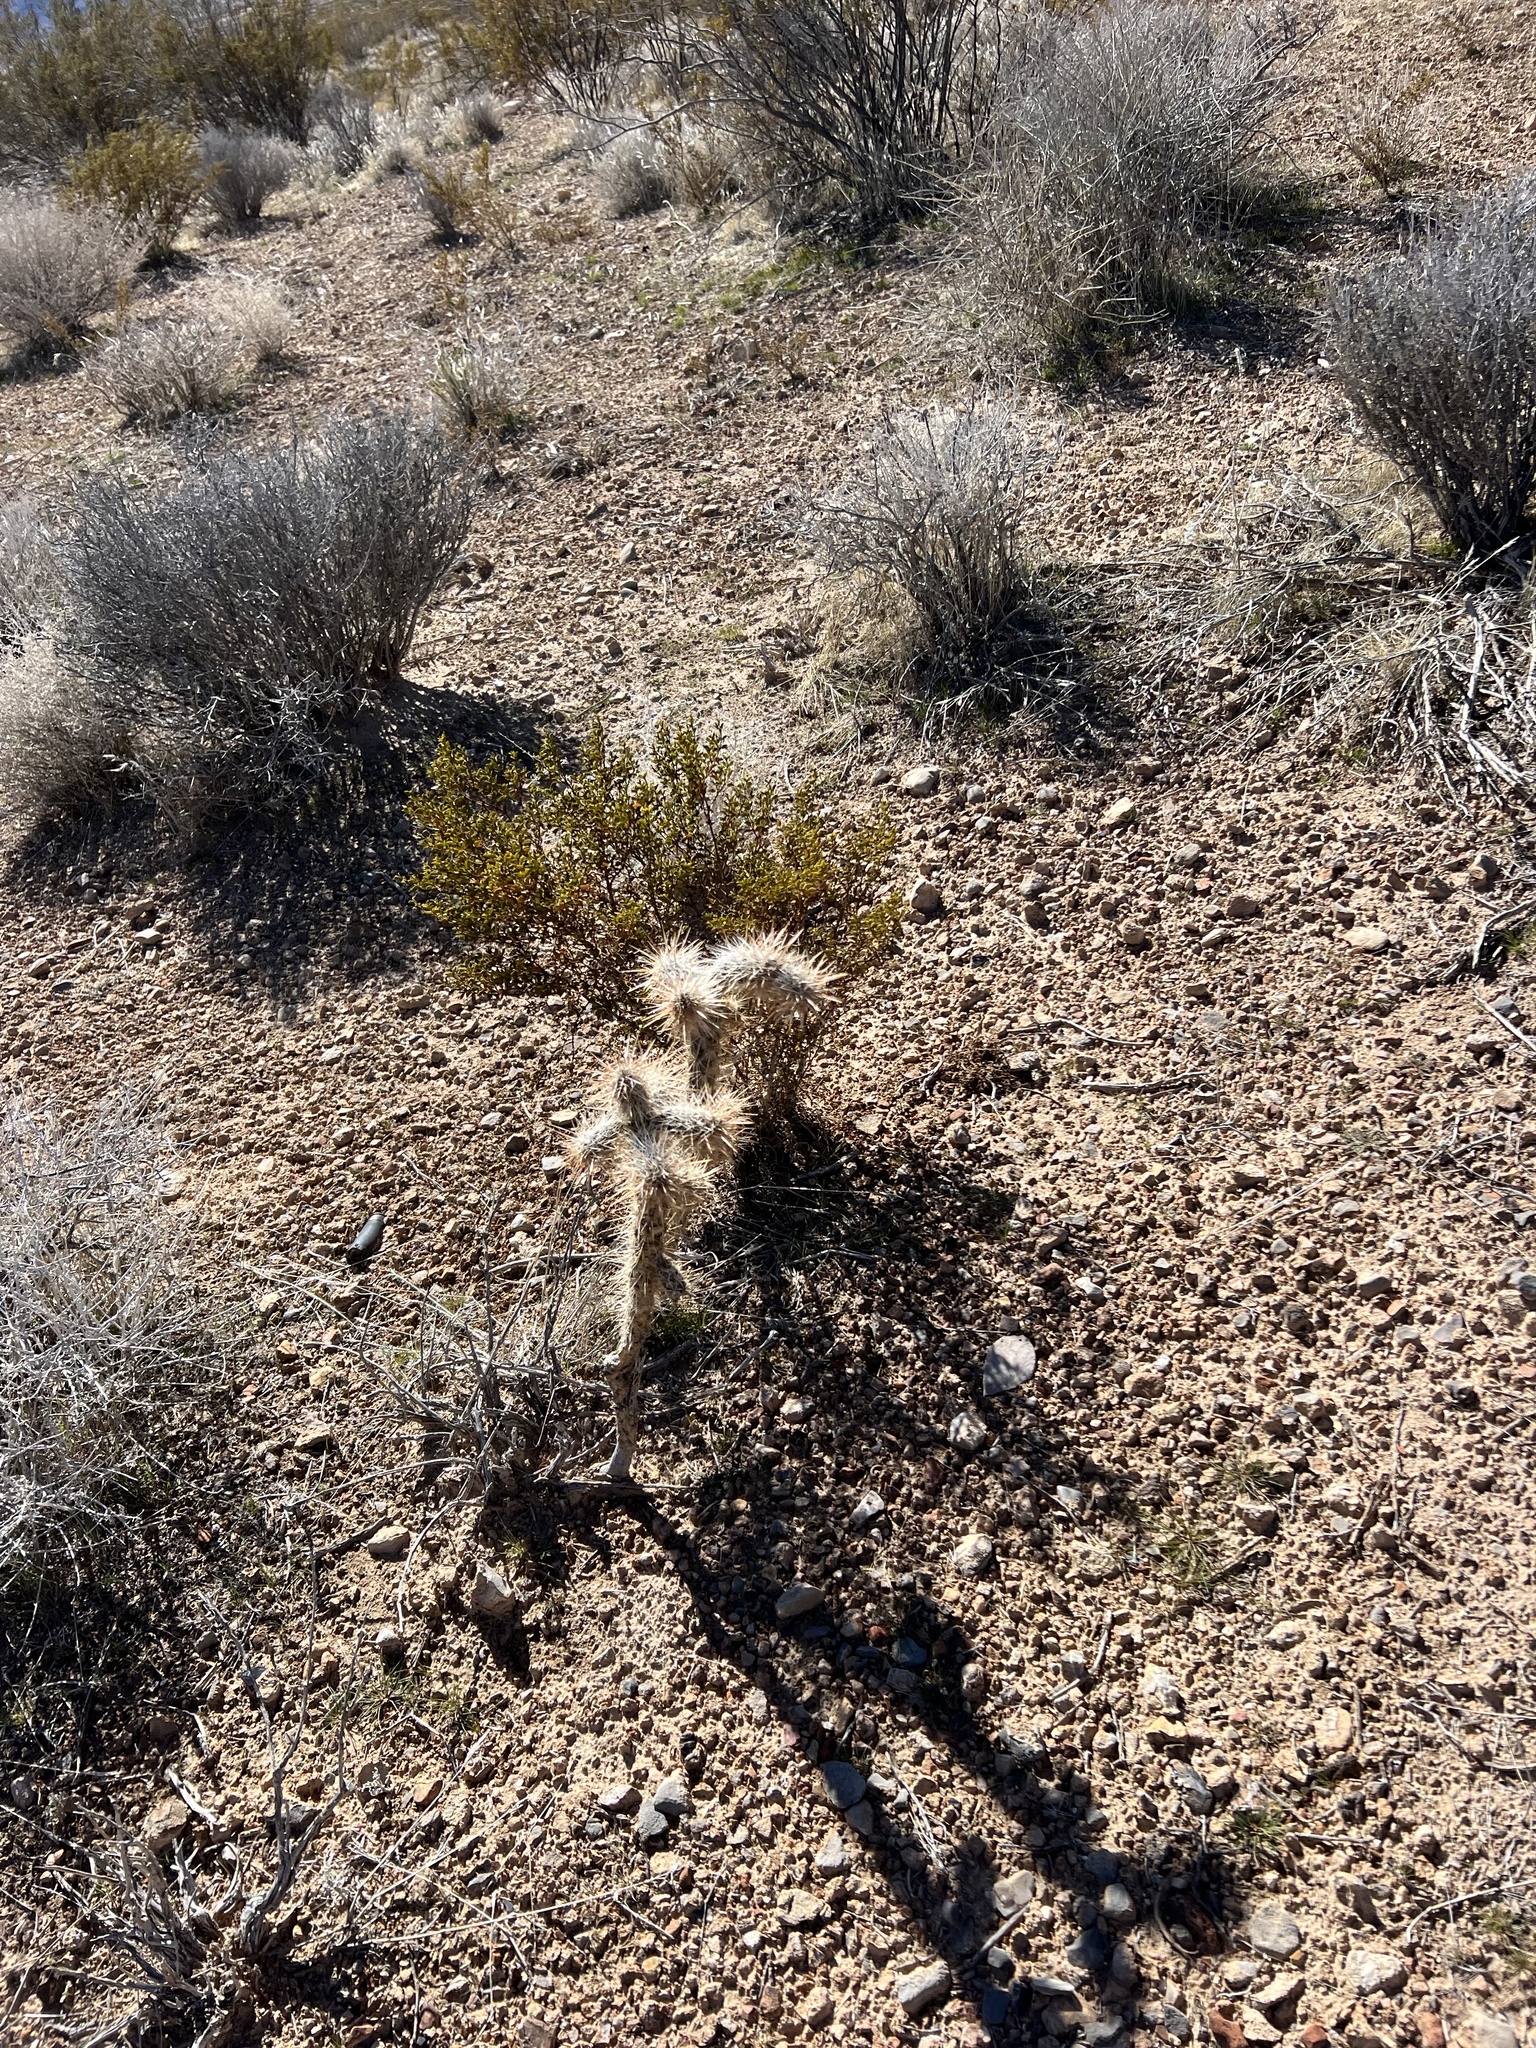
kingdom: Plantae
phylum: Tracheophyta
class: Magnoliopsida
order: Caryophyllales
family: Cactaceae
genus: Cylindropuntia
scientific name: Cylindropuntia echinocarpa
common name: Ground cholla
